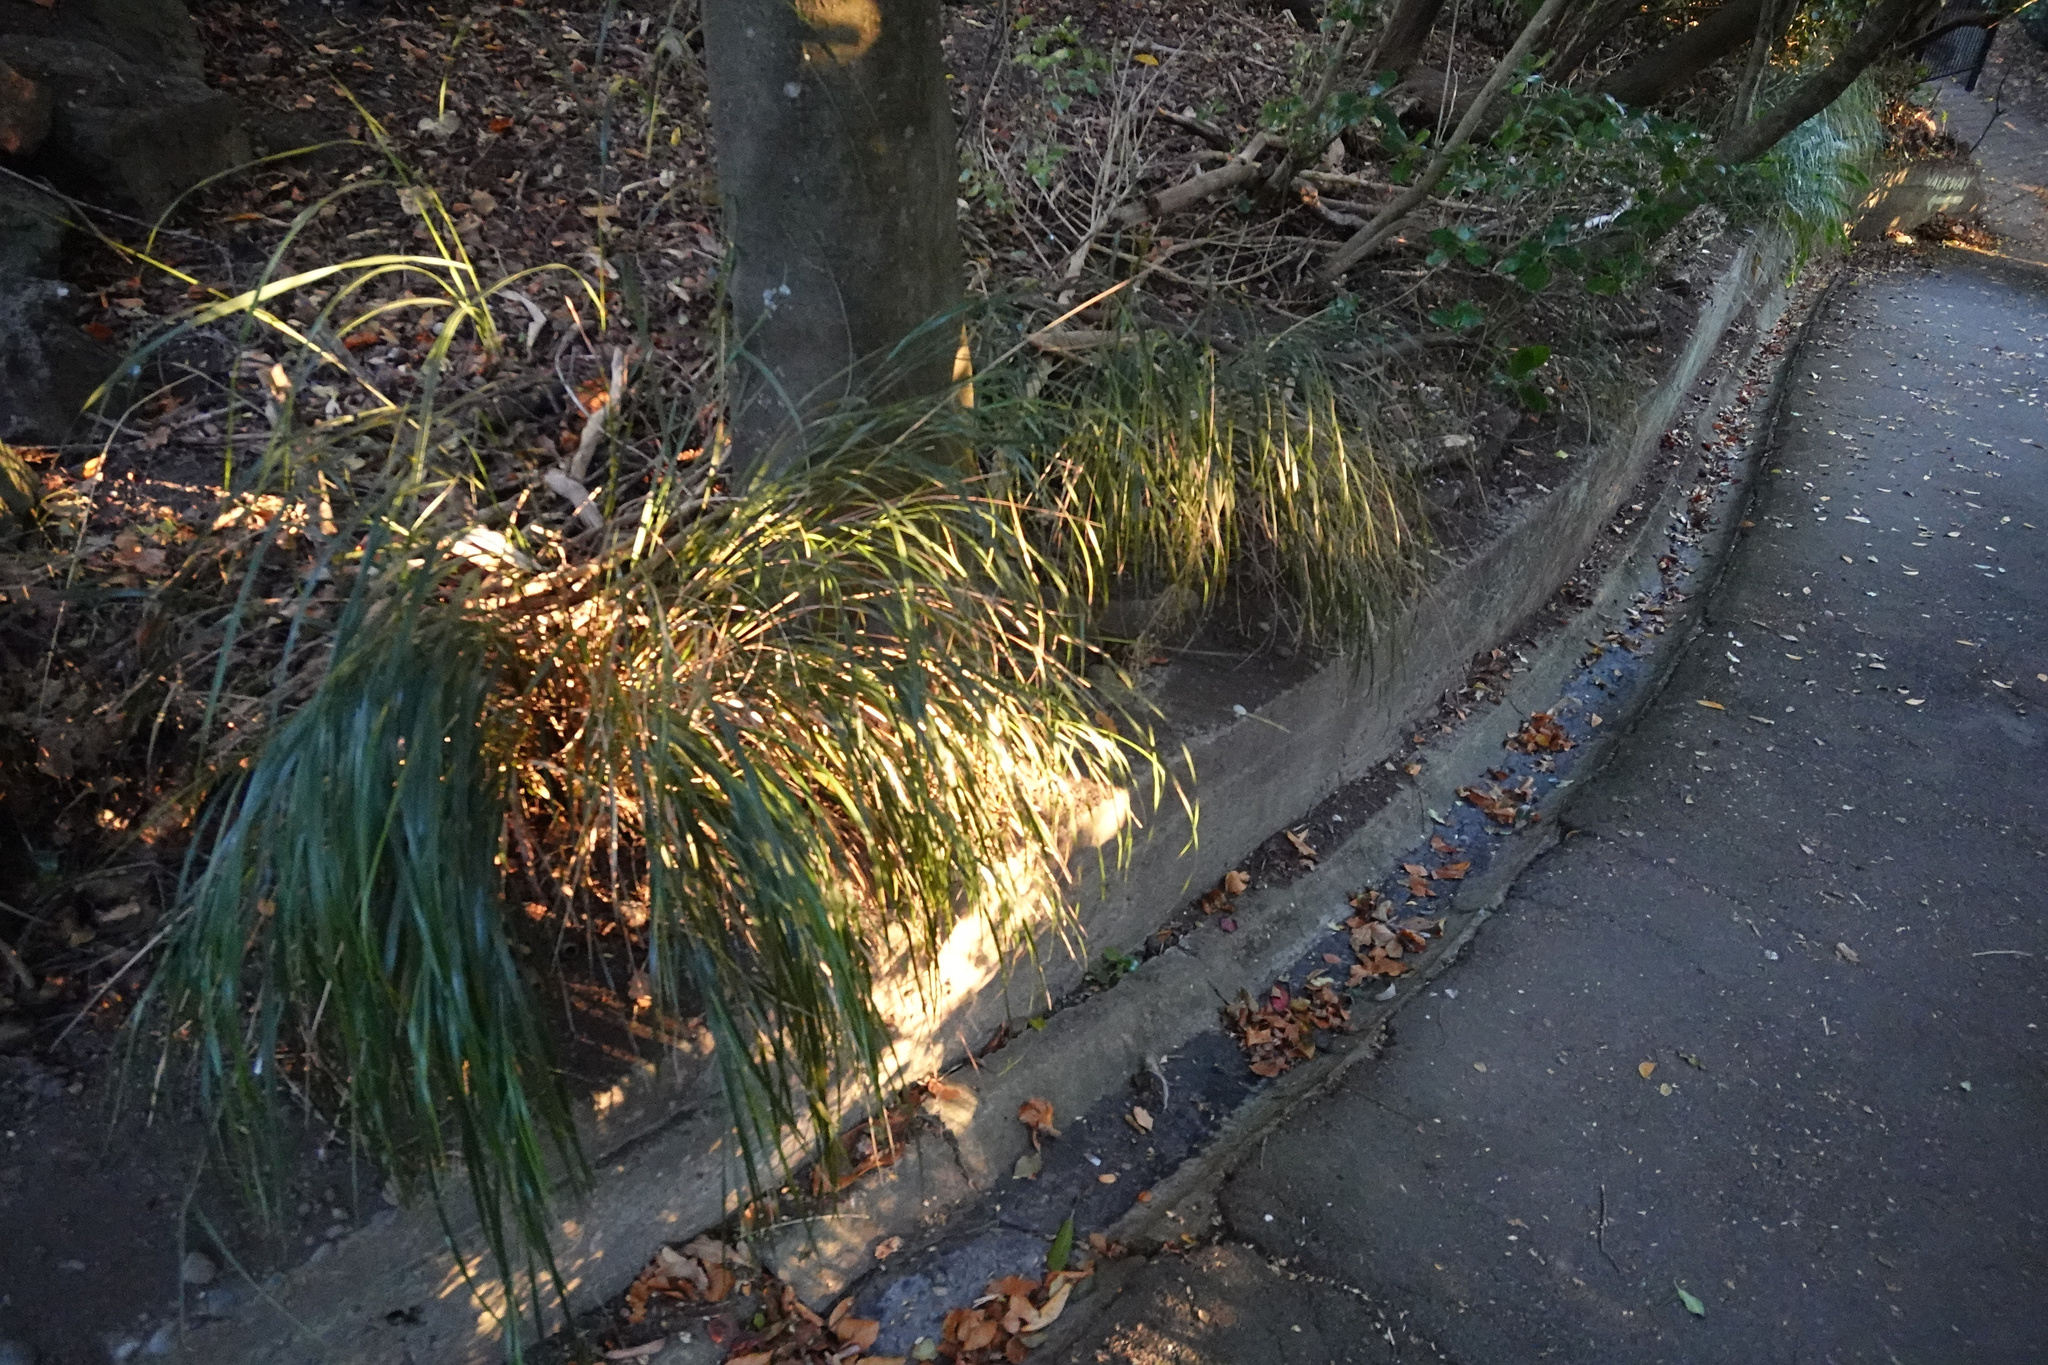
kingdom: Plantae
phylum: Tracheophyta
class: Liliopsida
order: Poales
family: Poaceae
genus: Anemanthele
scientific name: Anemanthele lessoniana
